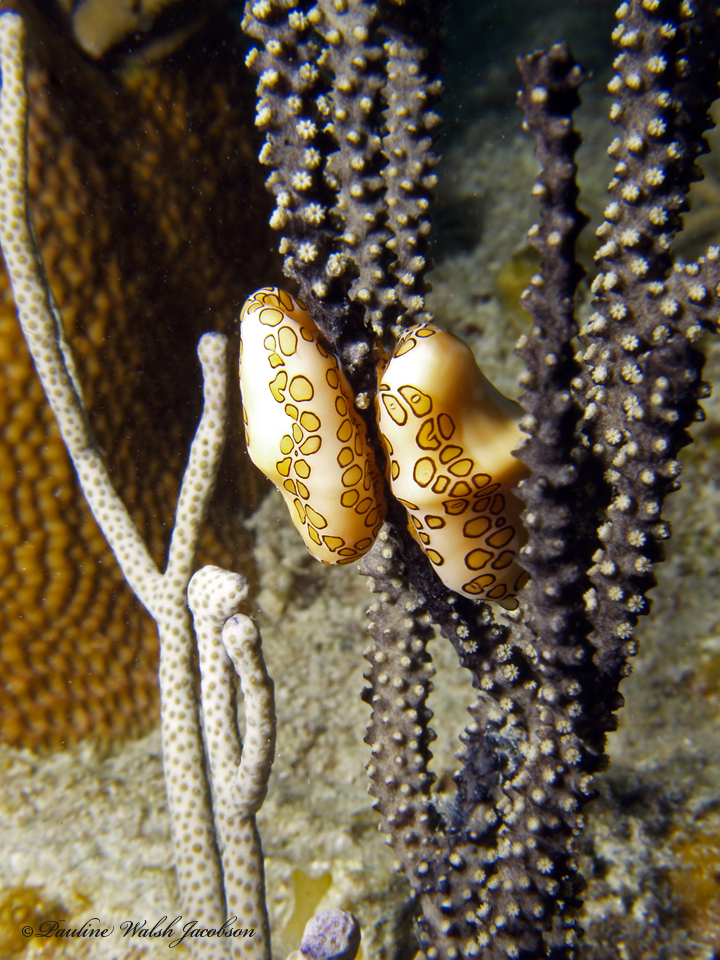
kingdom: Animalia
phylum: Mollusca
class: Gastropoda
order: Littorinimorpha
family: Ovulidae
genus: Cyphoma
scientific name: Cyphoma gibbosum
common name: Flamingo tongue
